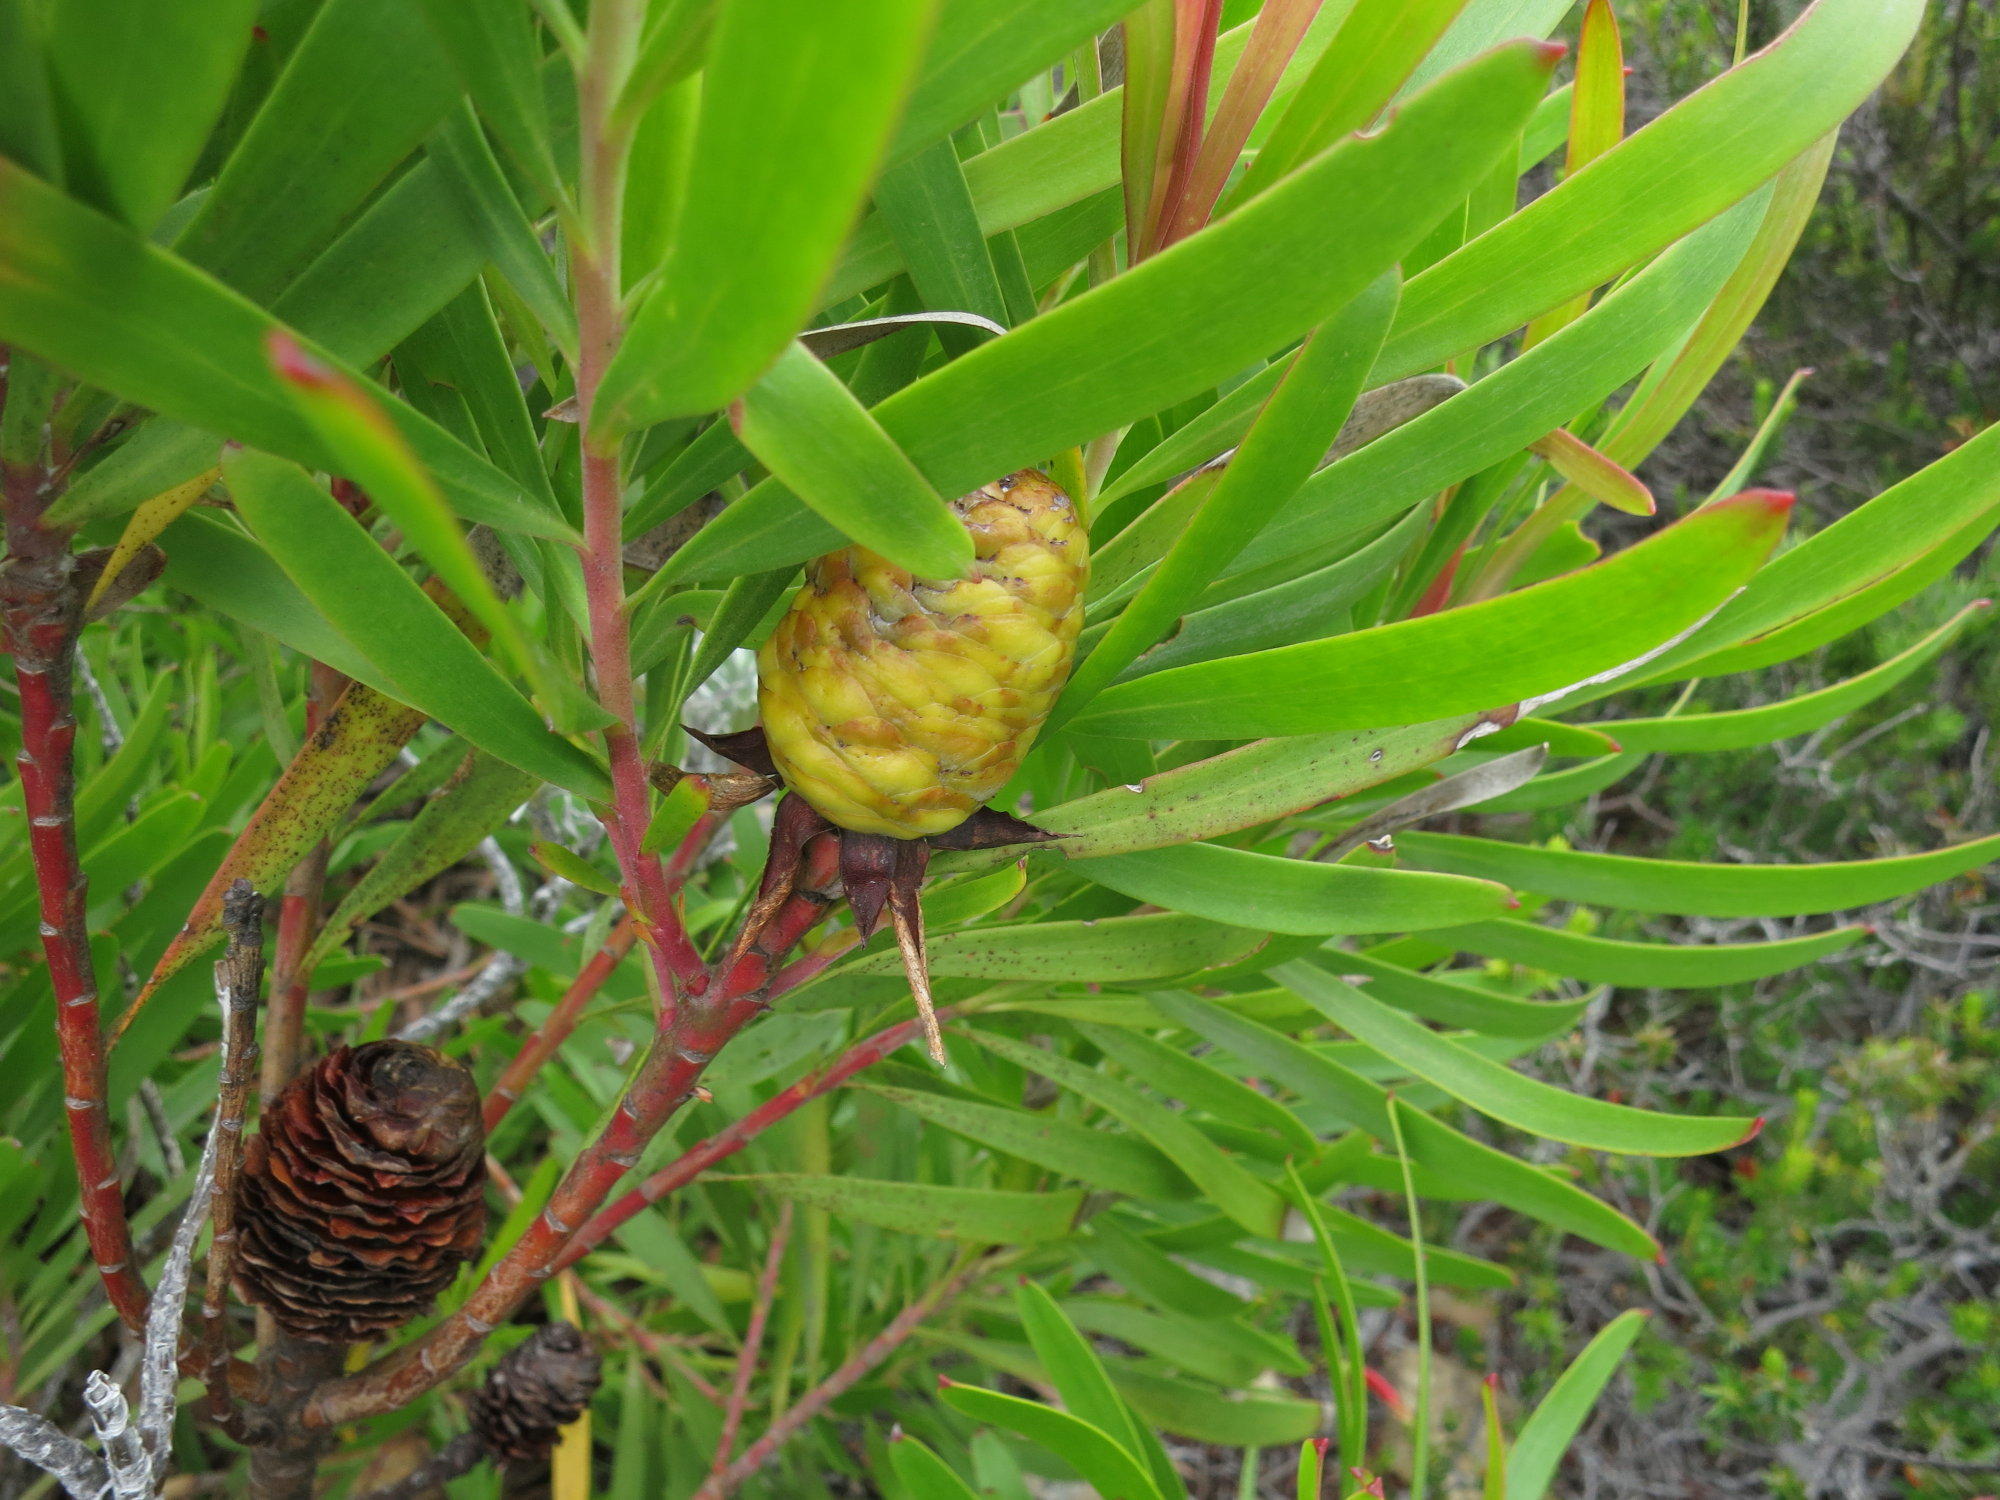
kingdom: Plantae
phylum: Tracheophyta
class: Magnoliopsida
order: Proteales
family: Proteaceae
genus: Leucadendron
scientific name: Leucadendron eucalyptifolium
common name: Gum-leaved conebush
